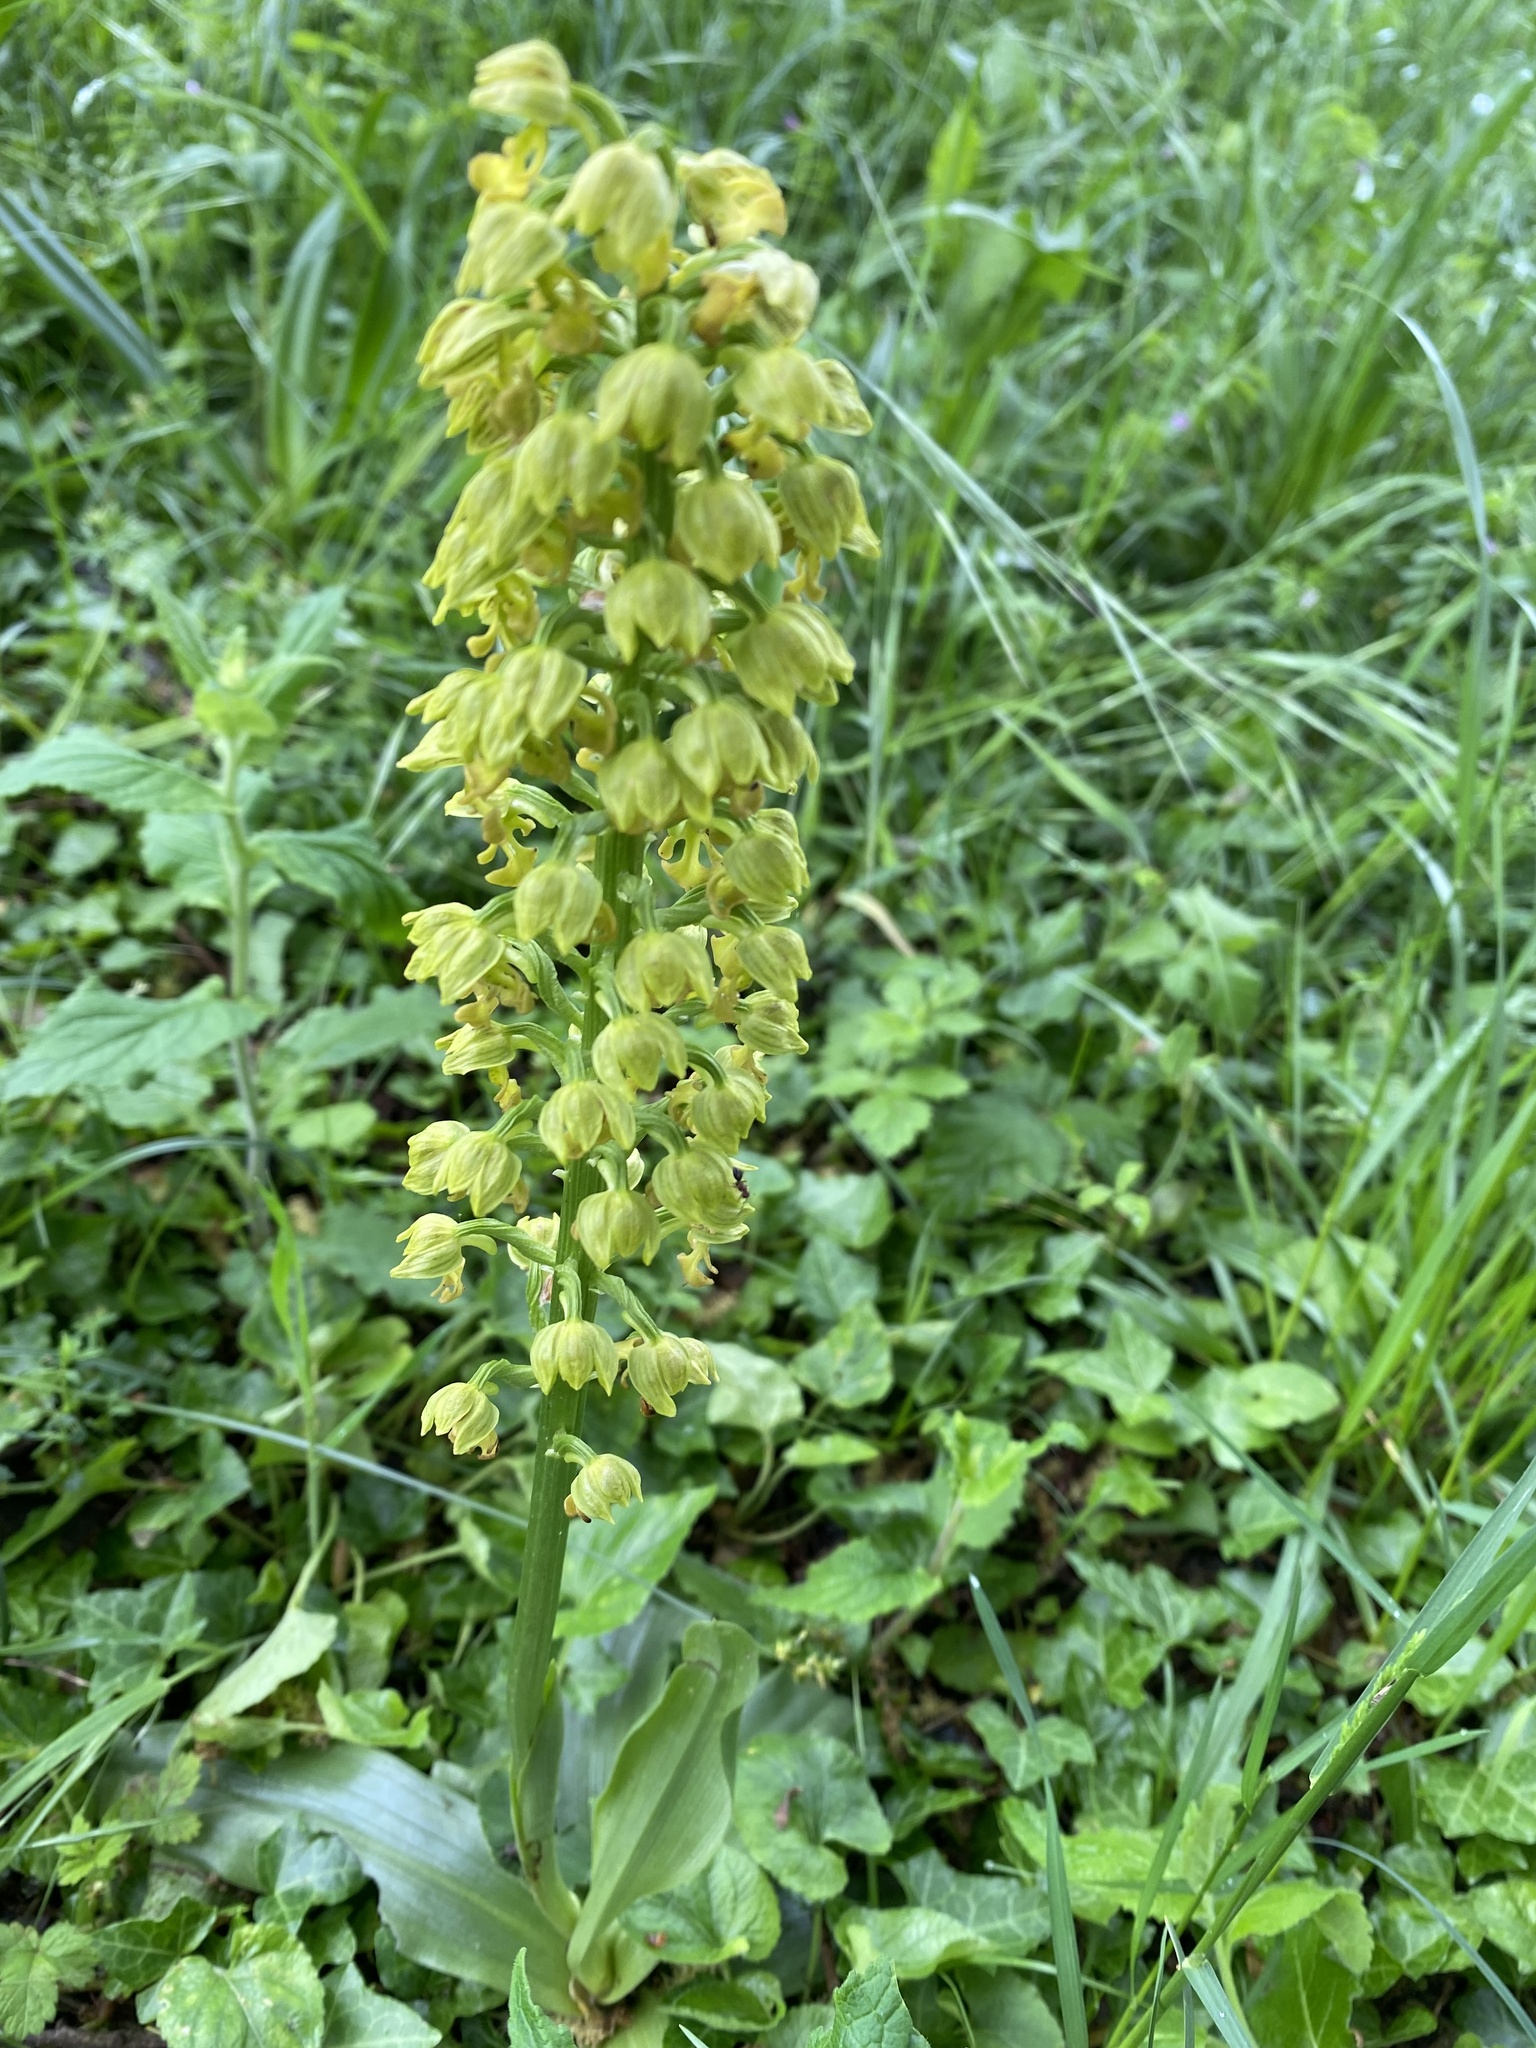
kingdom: Plantae
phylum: Tracheophyta
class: Liliopsida
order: Asparagales
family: Orchidaceae
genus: Orchis
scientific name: Orchis punctulata
